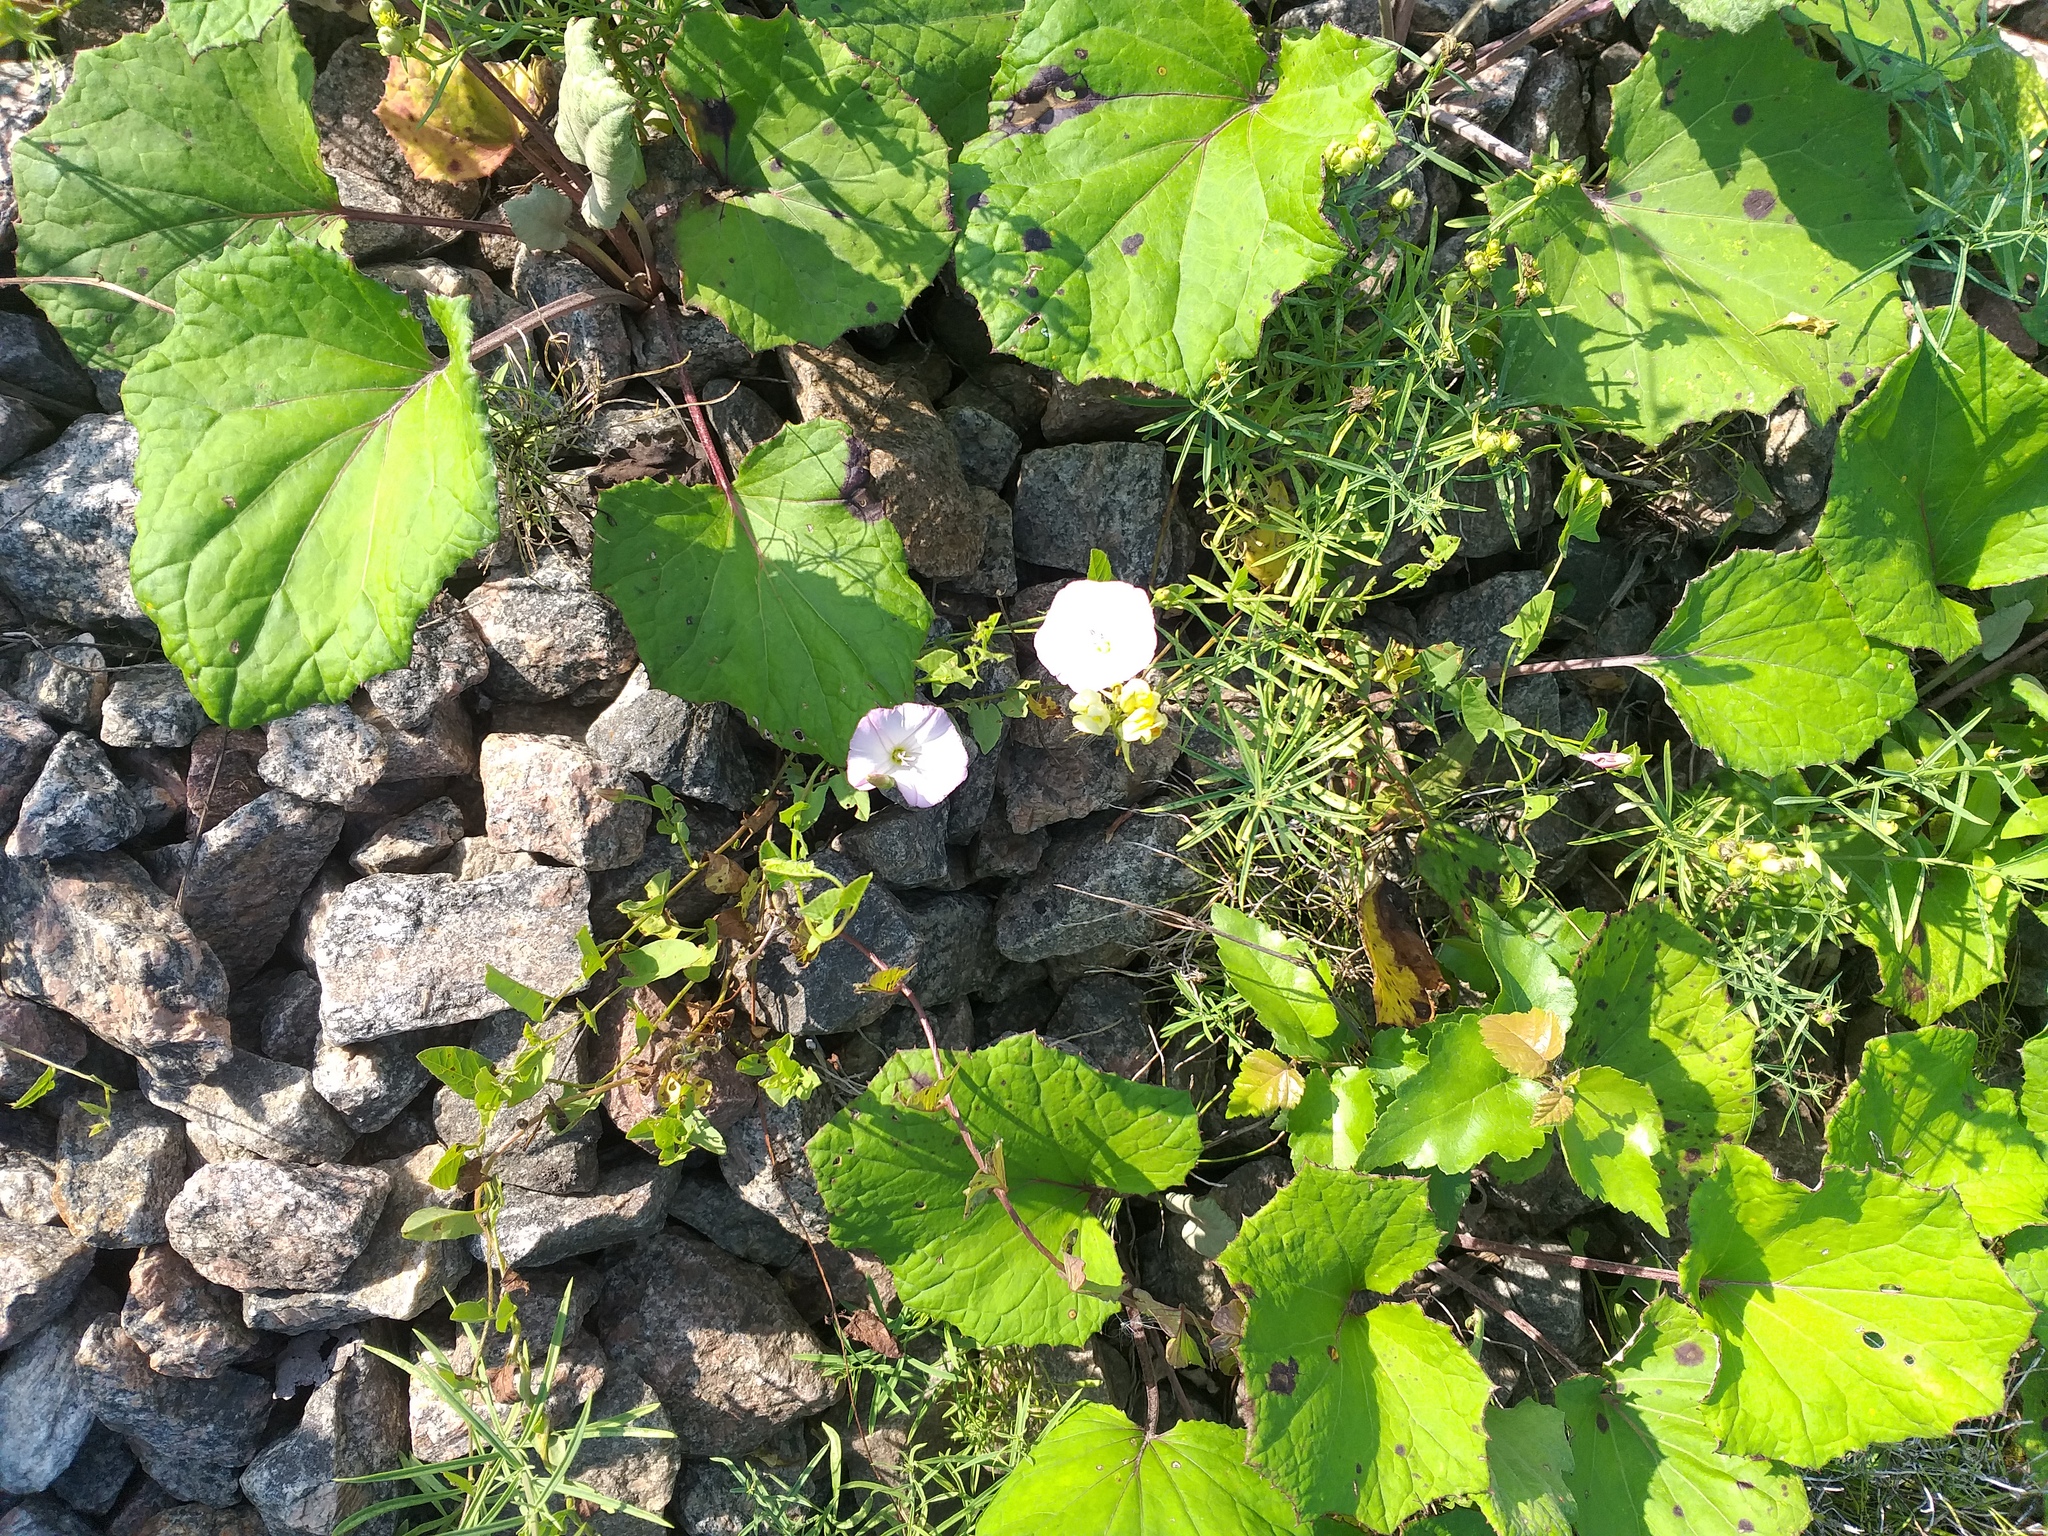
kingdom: Plantae
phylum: Tracheophyta
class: Magnoliopsida
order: Solanales
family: Convolvulaceae
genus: Convolvulus
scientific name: Convolvulus arvensis
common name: Field bindweed
